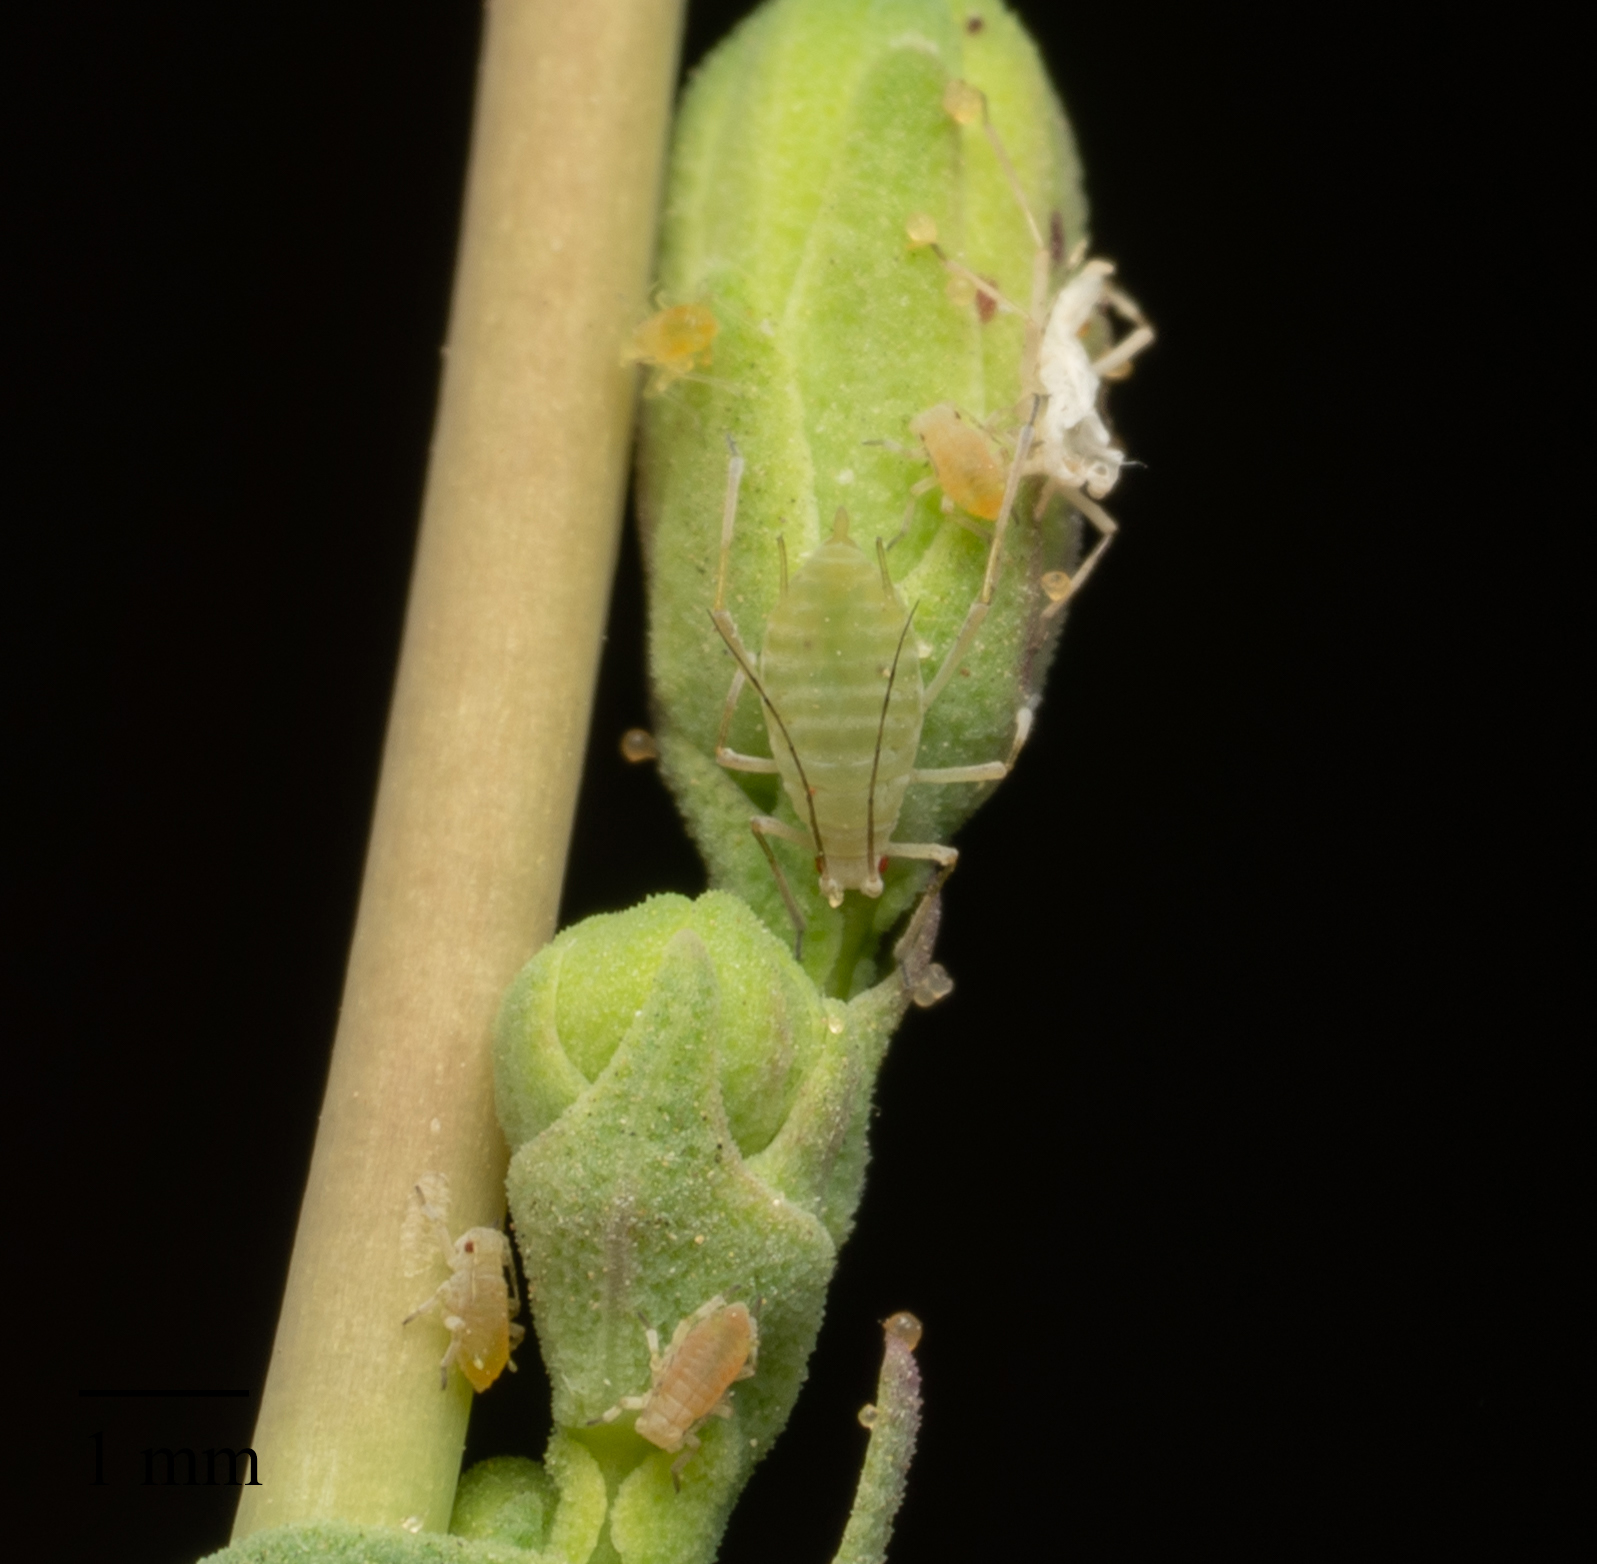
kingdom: Animalia
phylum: Arthropoda
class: Insecta
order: Hemiptera
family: Aphididae
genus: Acyrthosiphon
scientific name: Acyrthosiphon lactucae
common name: Aphid
